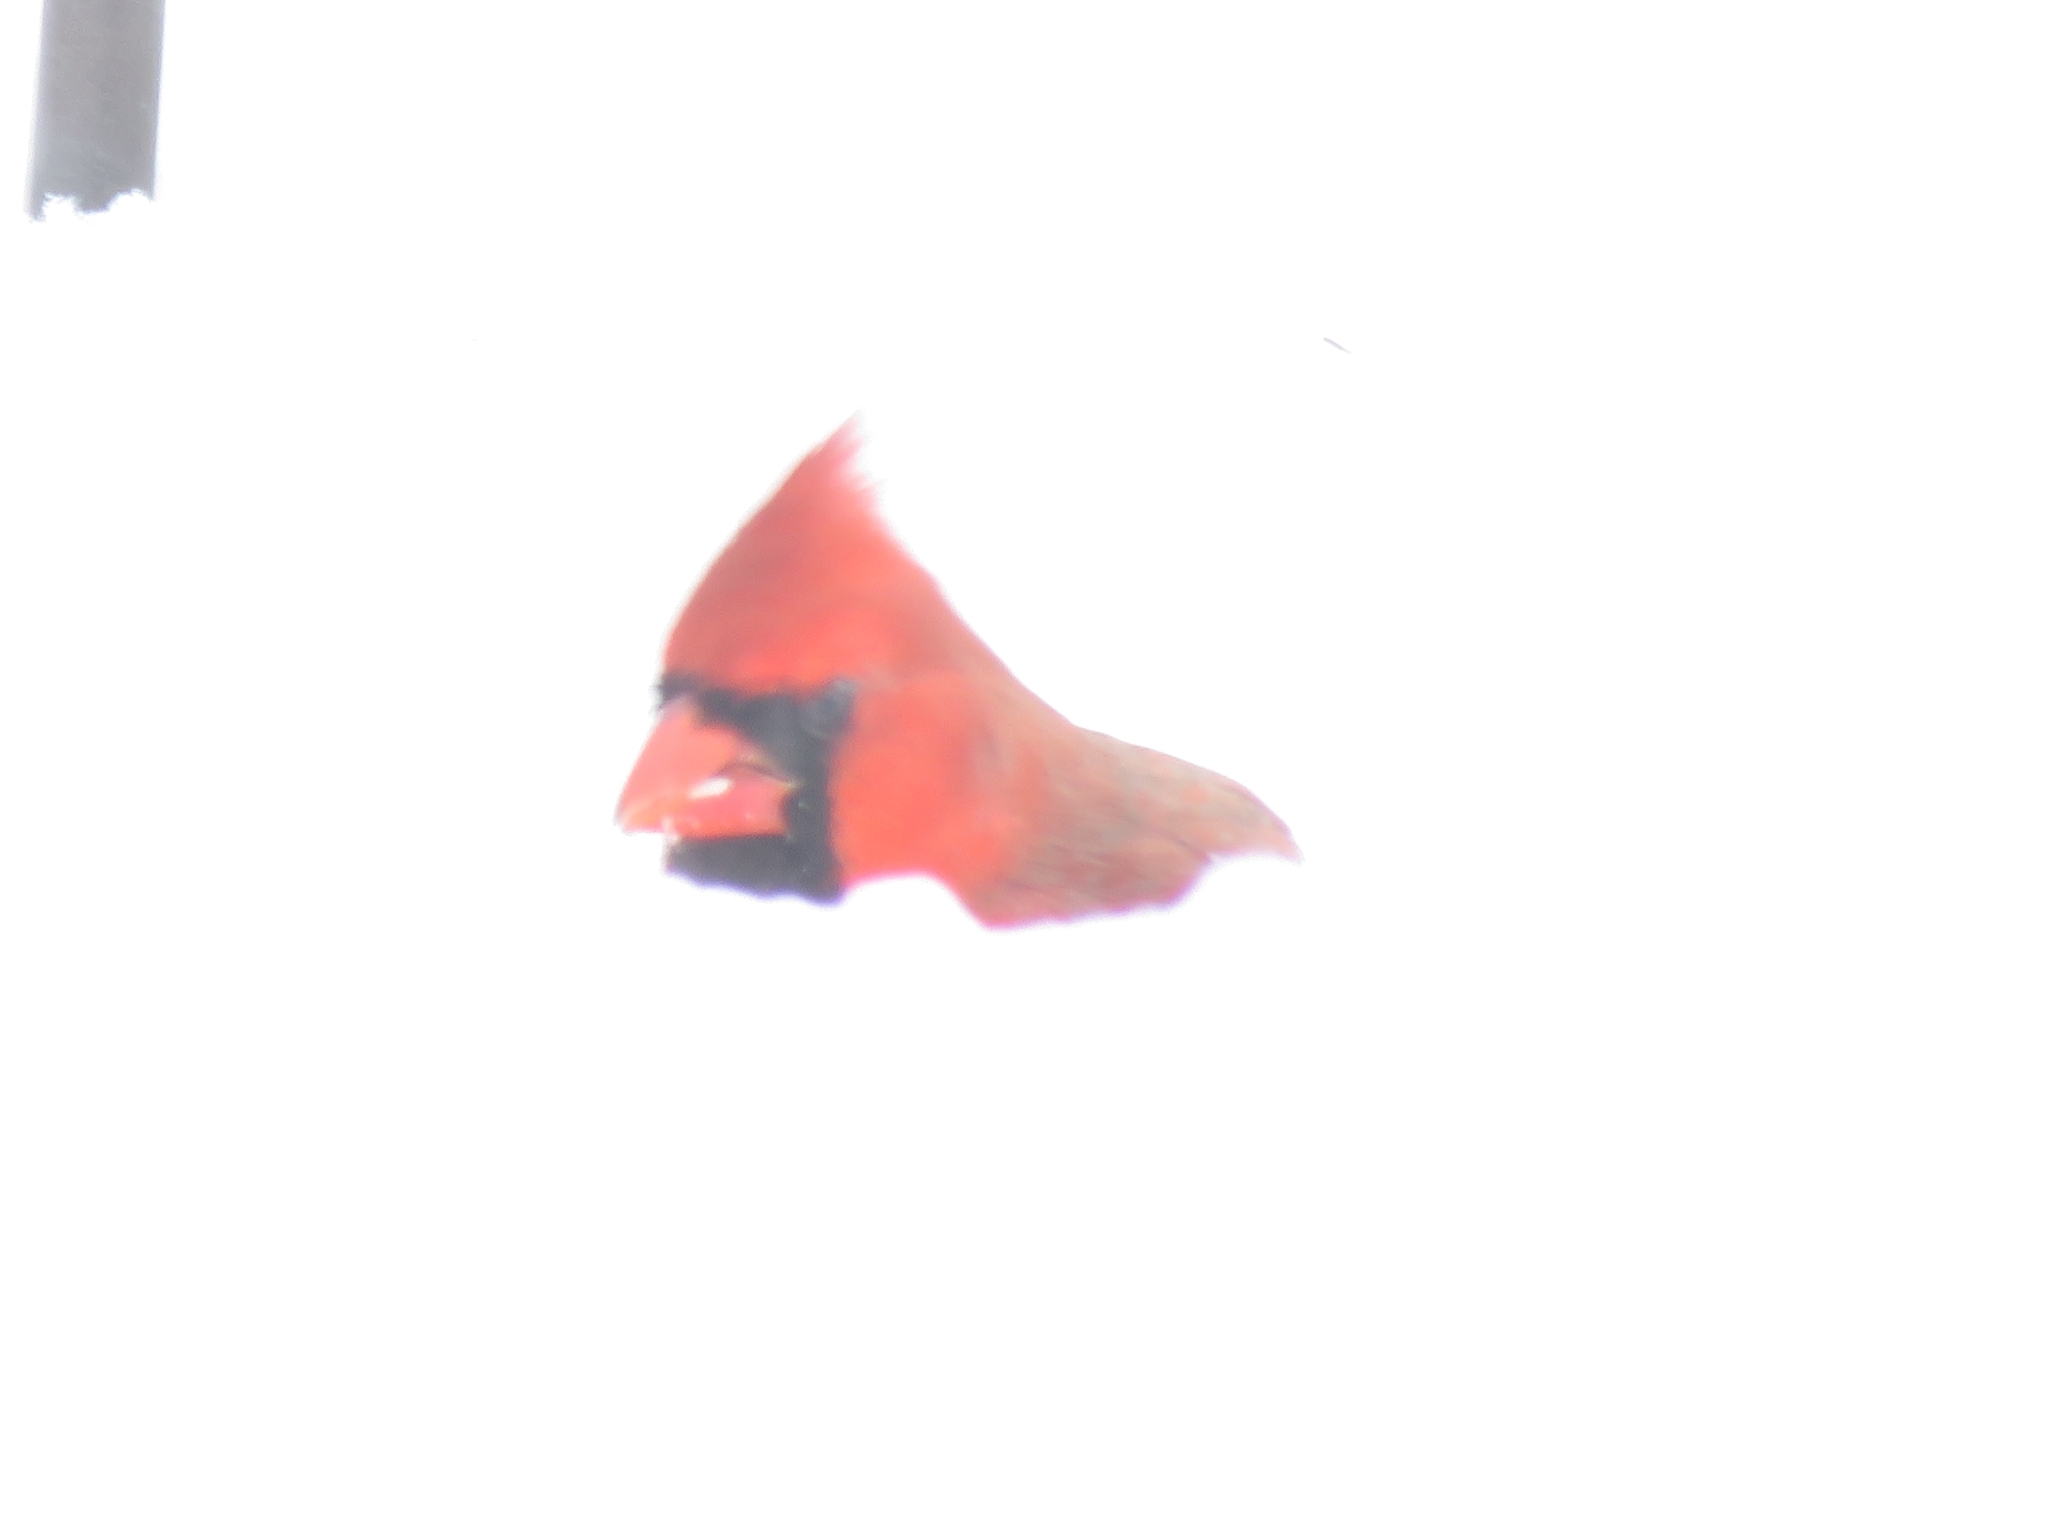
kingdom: Animalia
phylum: Chordata
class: Aves
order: Passeriformes
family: Cardinalidae
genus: Cardinalis
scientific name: Cardinalis cardinalis
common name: Northern cardinal
